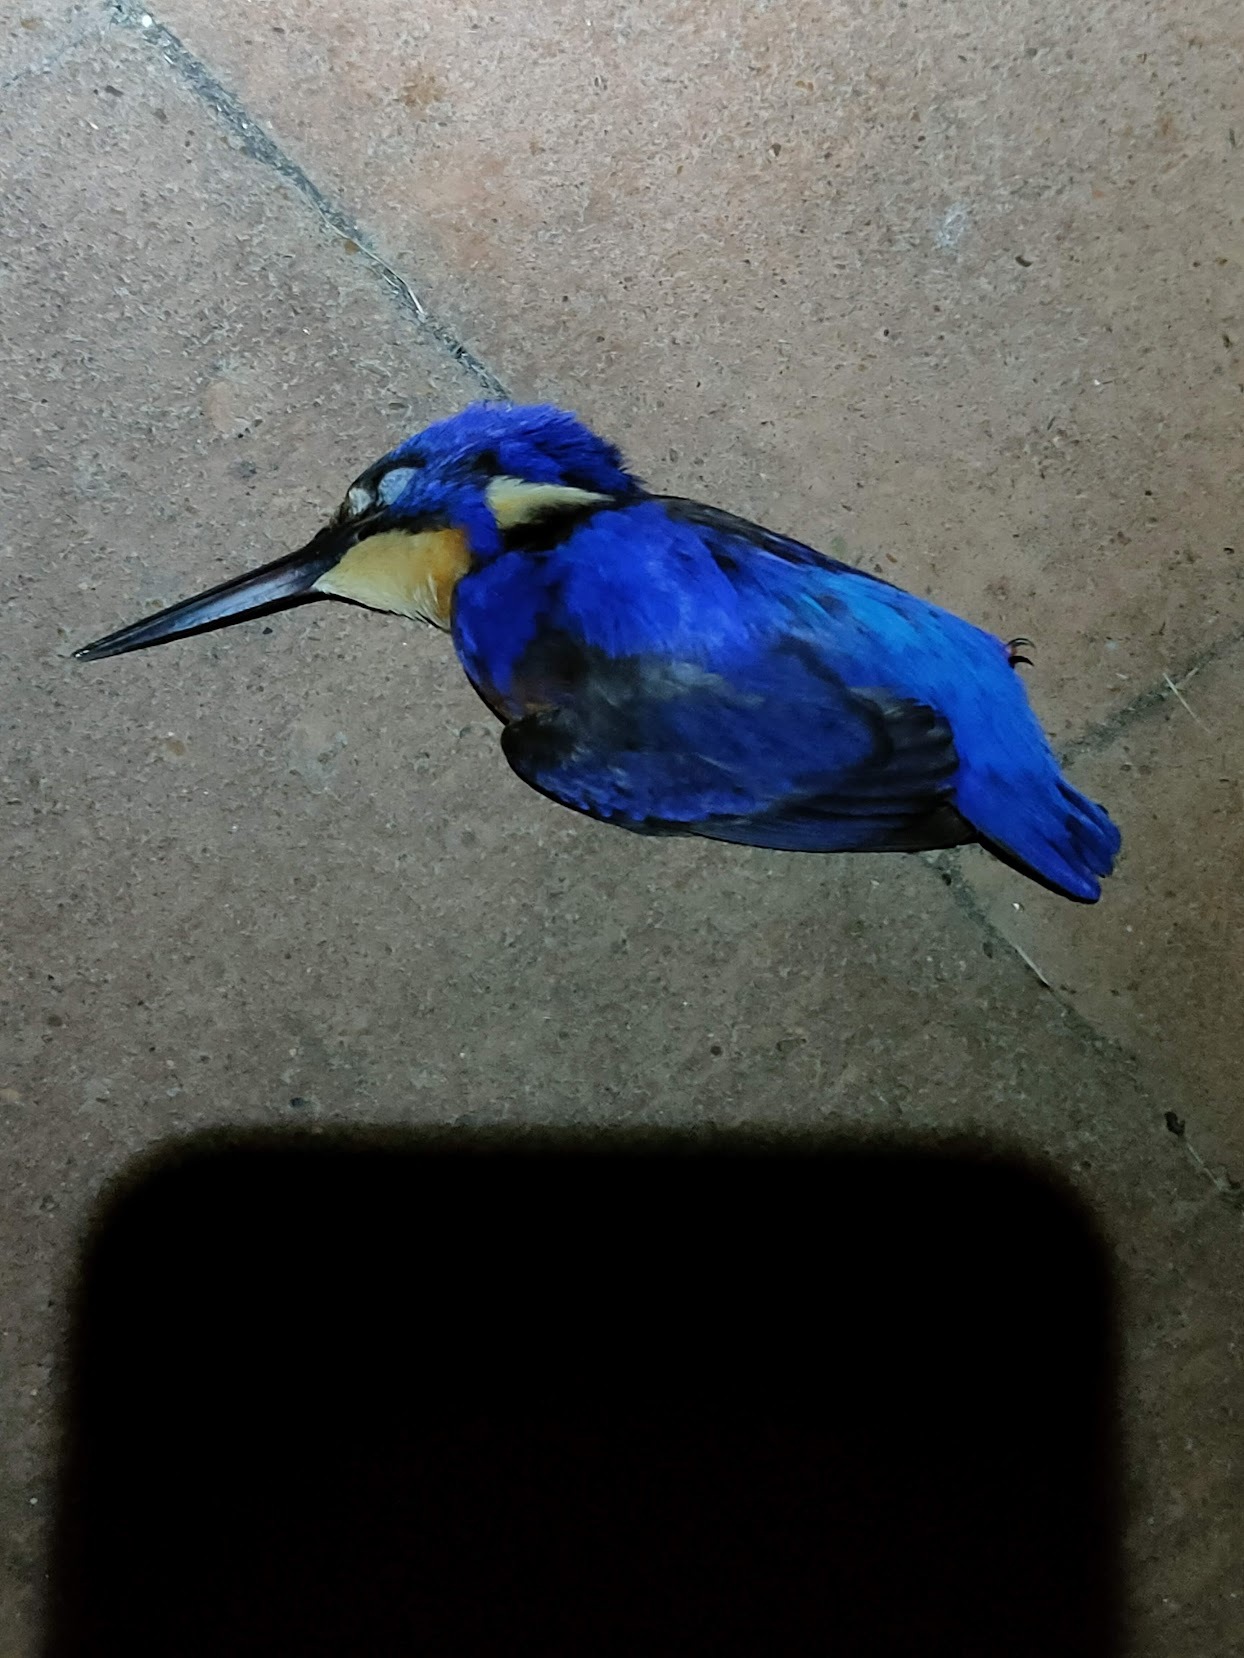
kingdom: Animalia
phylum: Chordata
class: Aves
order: Coraciiformes
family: Alcedinidae
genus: Ceyx
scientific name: Ceyx azureus
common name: Azure kingfisher
